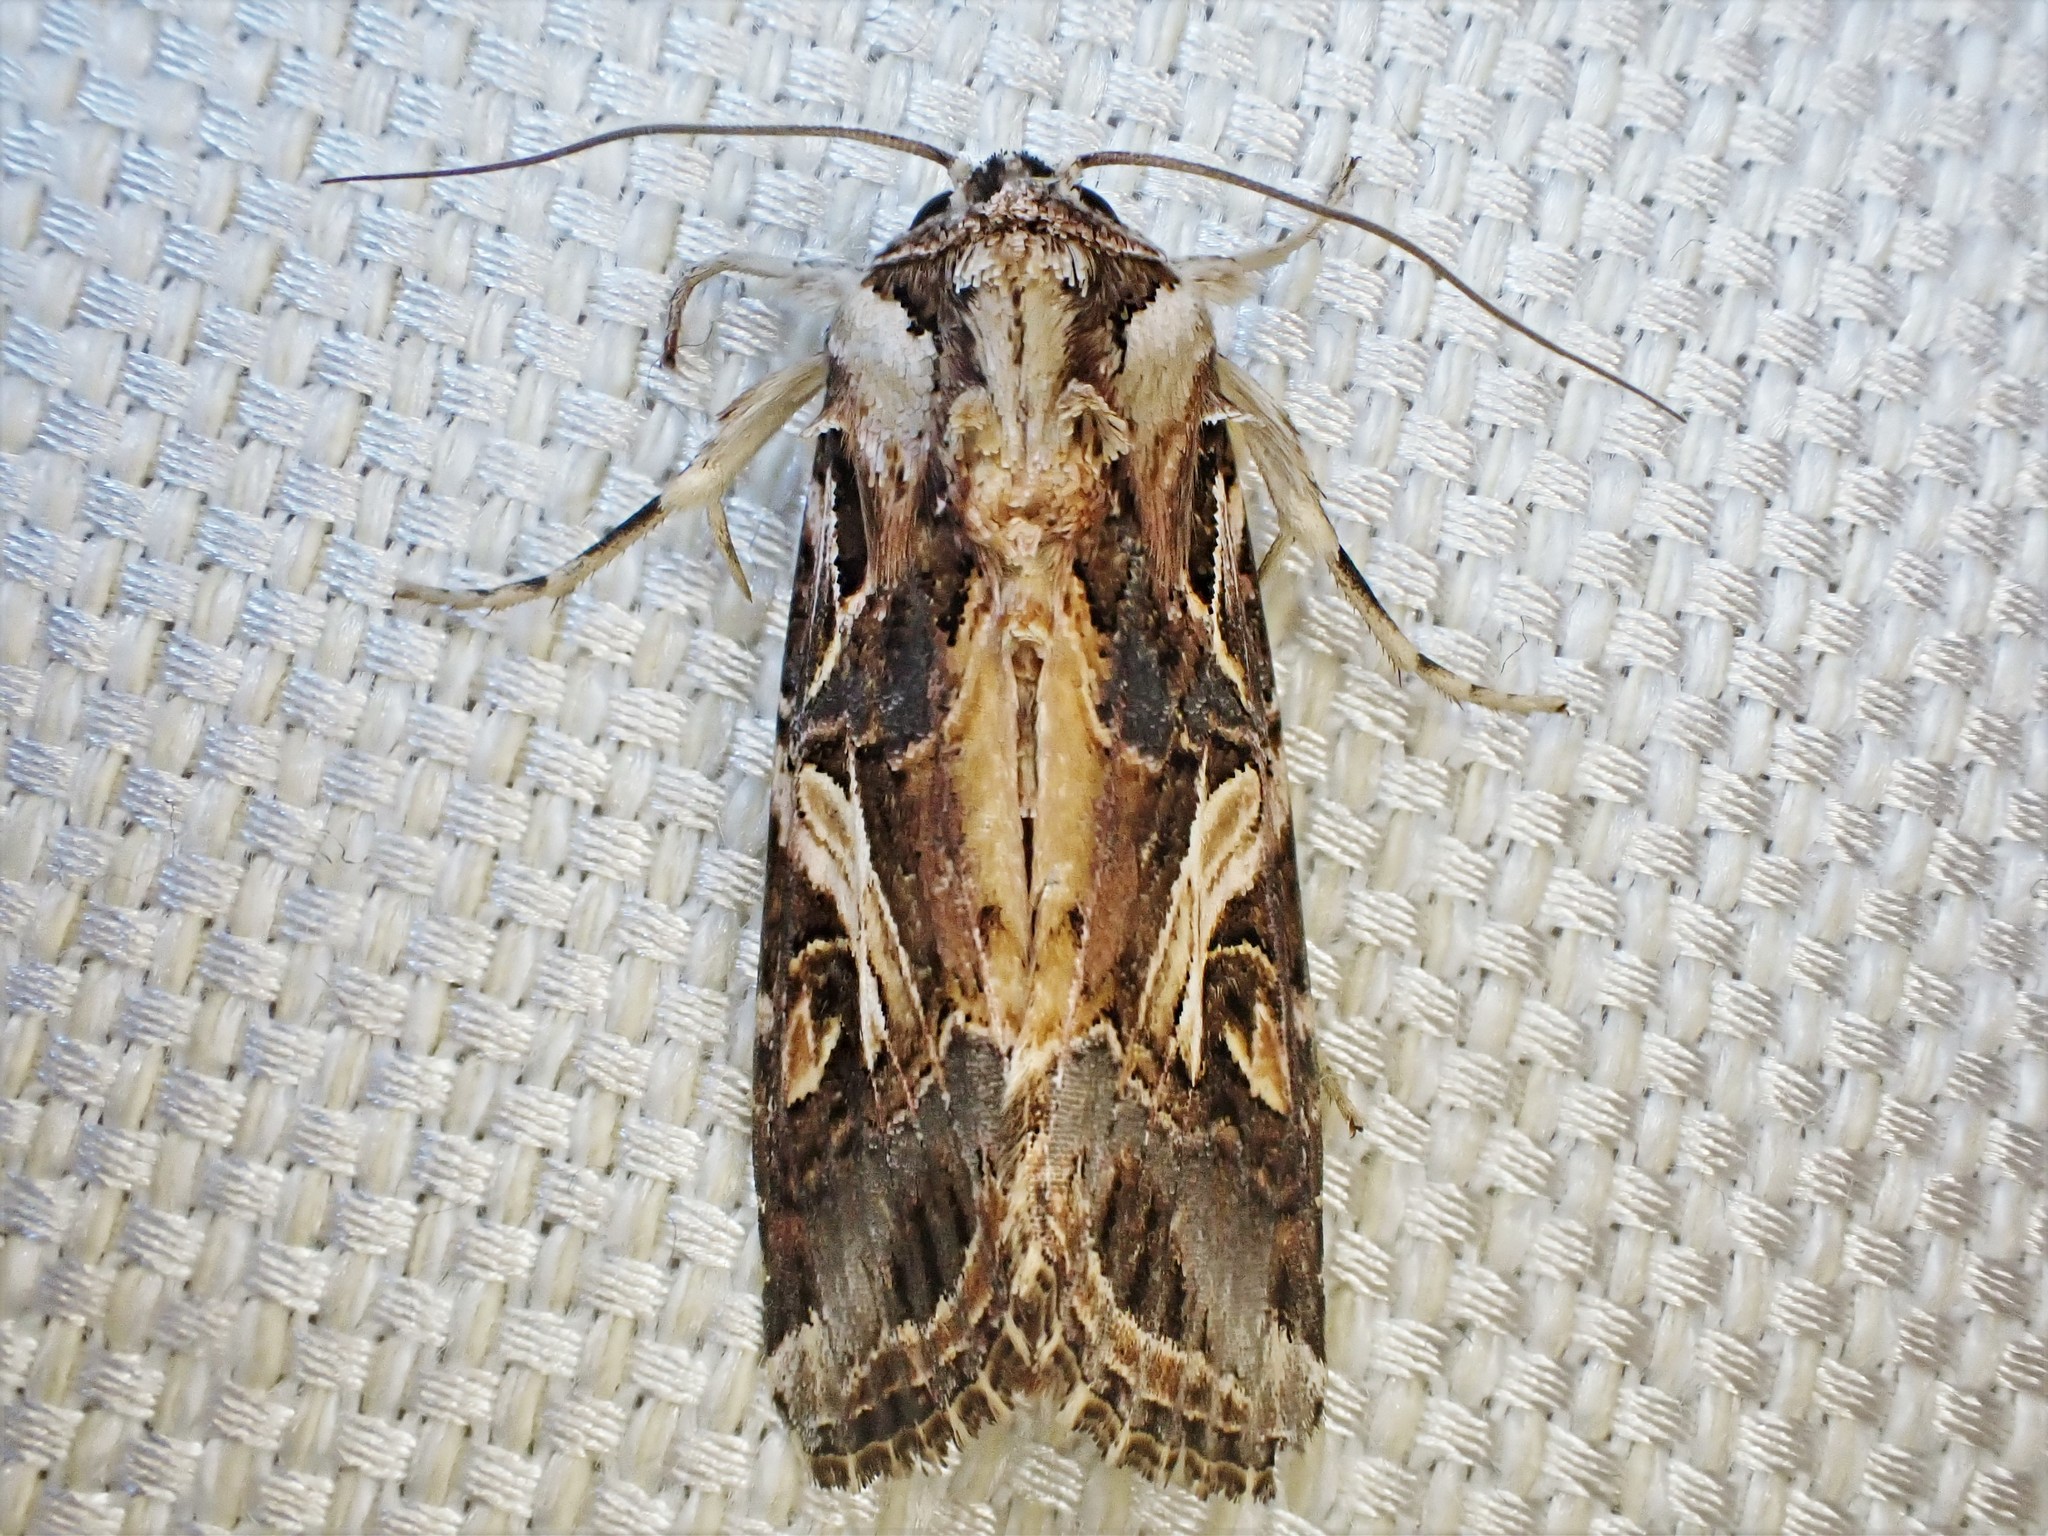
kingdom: Animalia
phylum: Arthropoda
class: Insecta
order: Lepidoptera
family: Noctuidae
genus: Spodoptera
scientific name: Spodoptera litura
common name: Asian cotton leafworm
